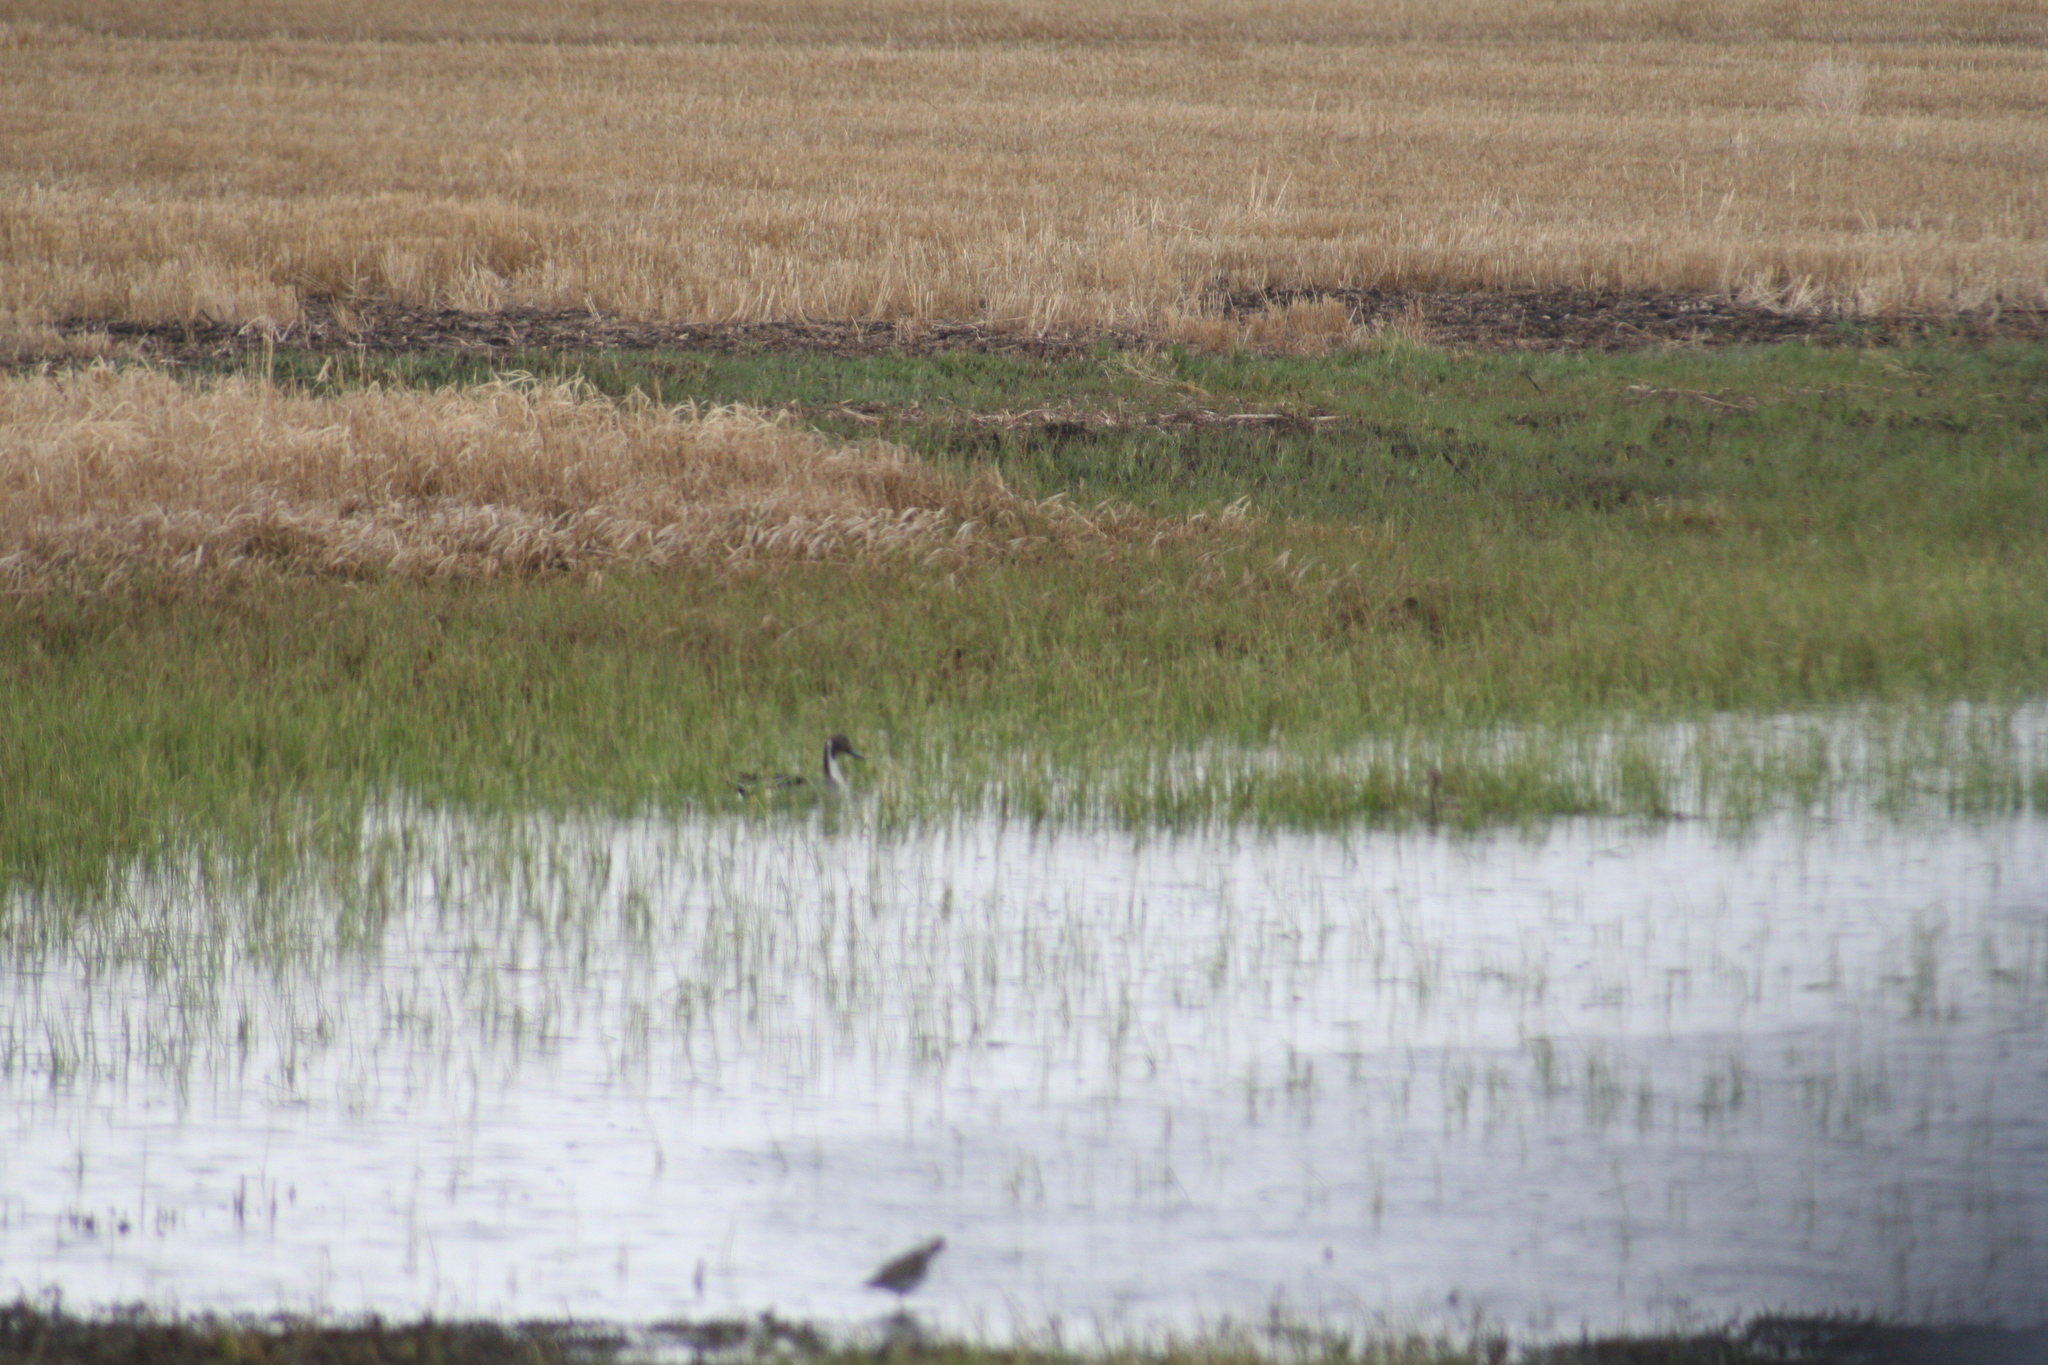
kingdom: Animalia
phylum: Chordata
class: Aves
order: Anseriformes
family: Anatidae
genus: Anas
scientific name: Anas acuta
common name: Northern pintail
